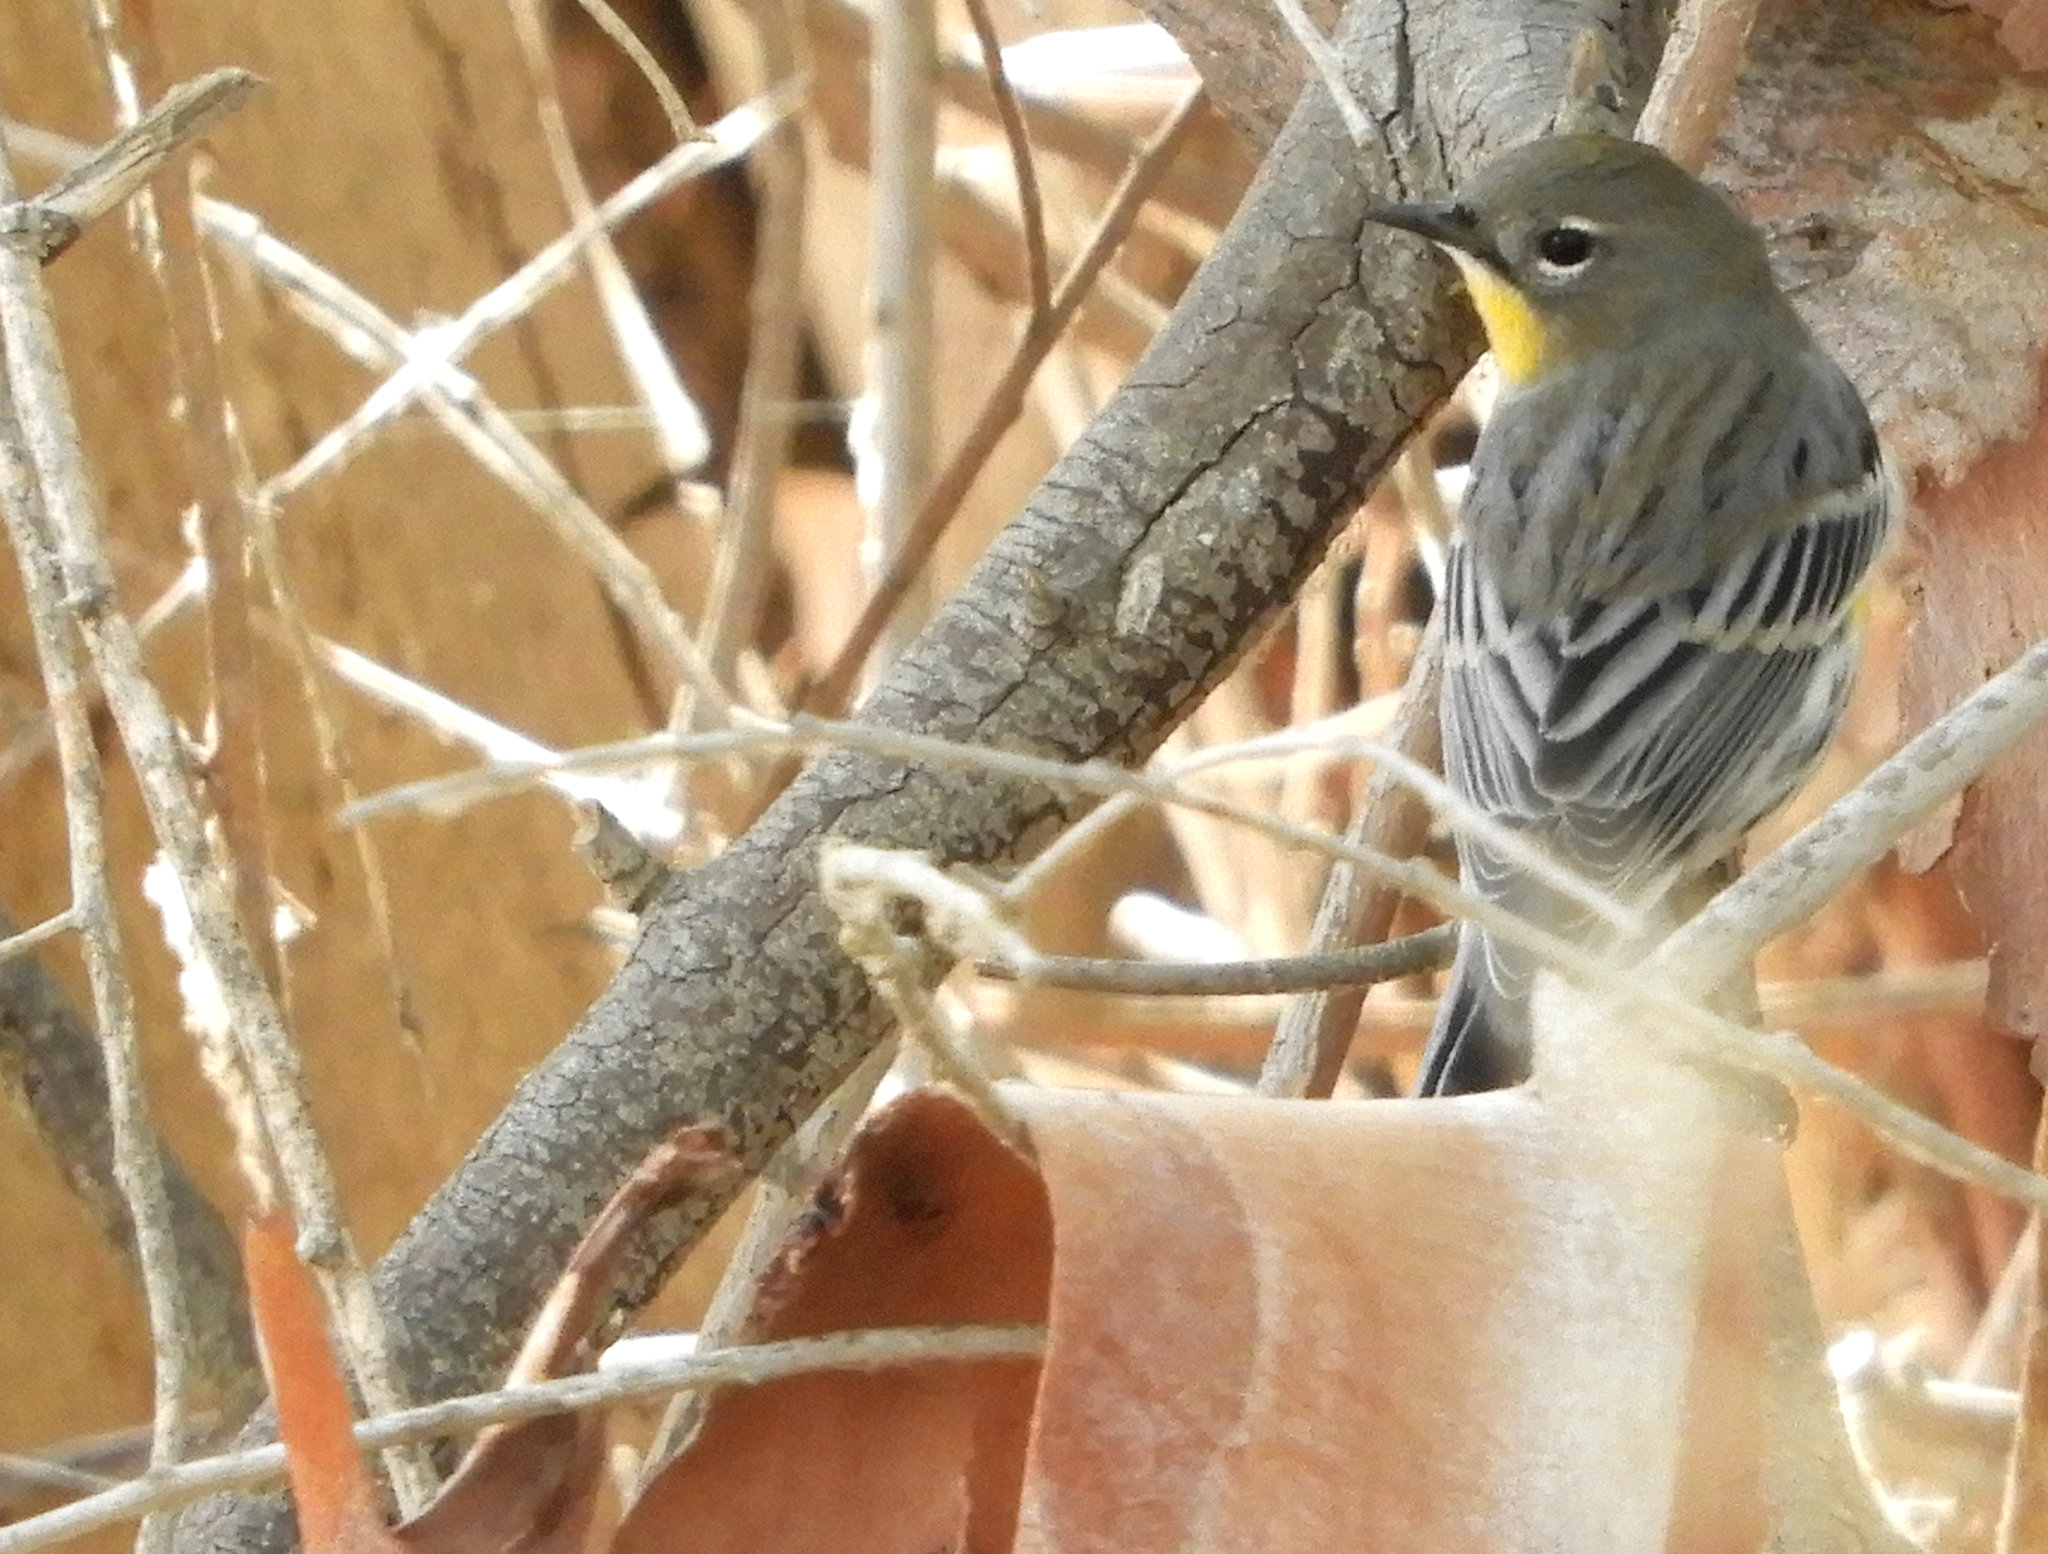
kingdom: Animalia
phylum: Chordata
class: Aves
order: Passeriformes
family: Parulidae
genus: Setophaga
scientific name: Setophaga auduboni
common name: Audubon's warbler
